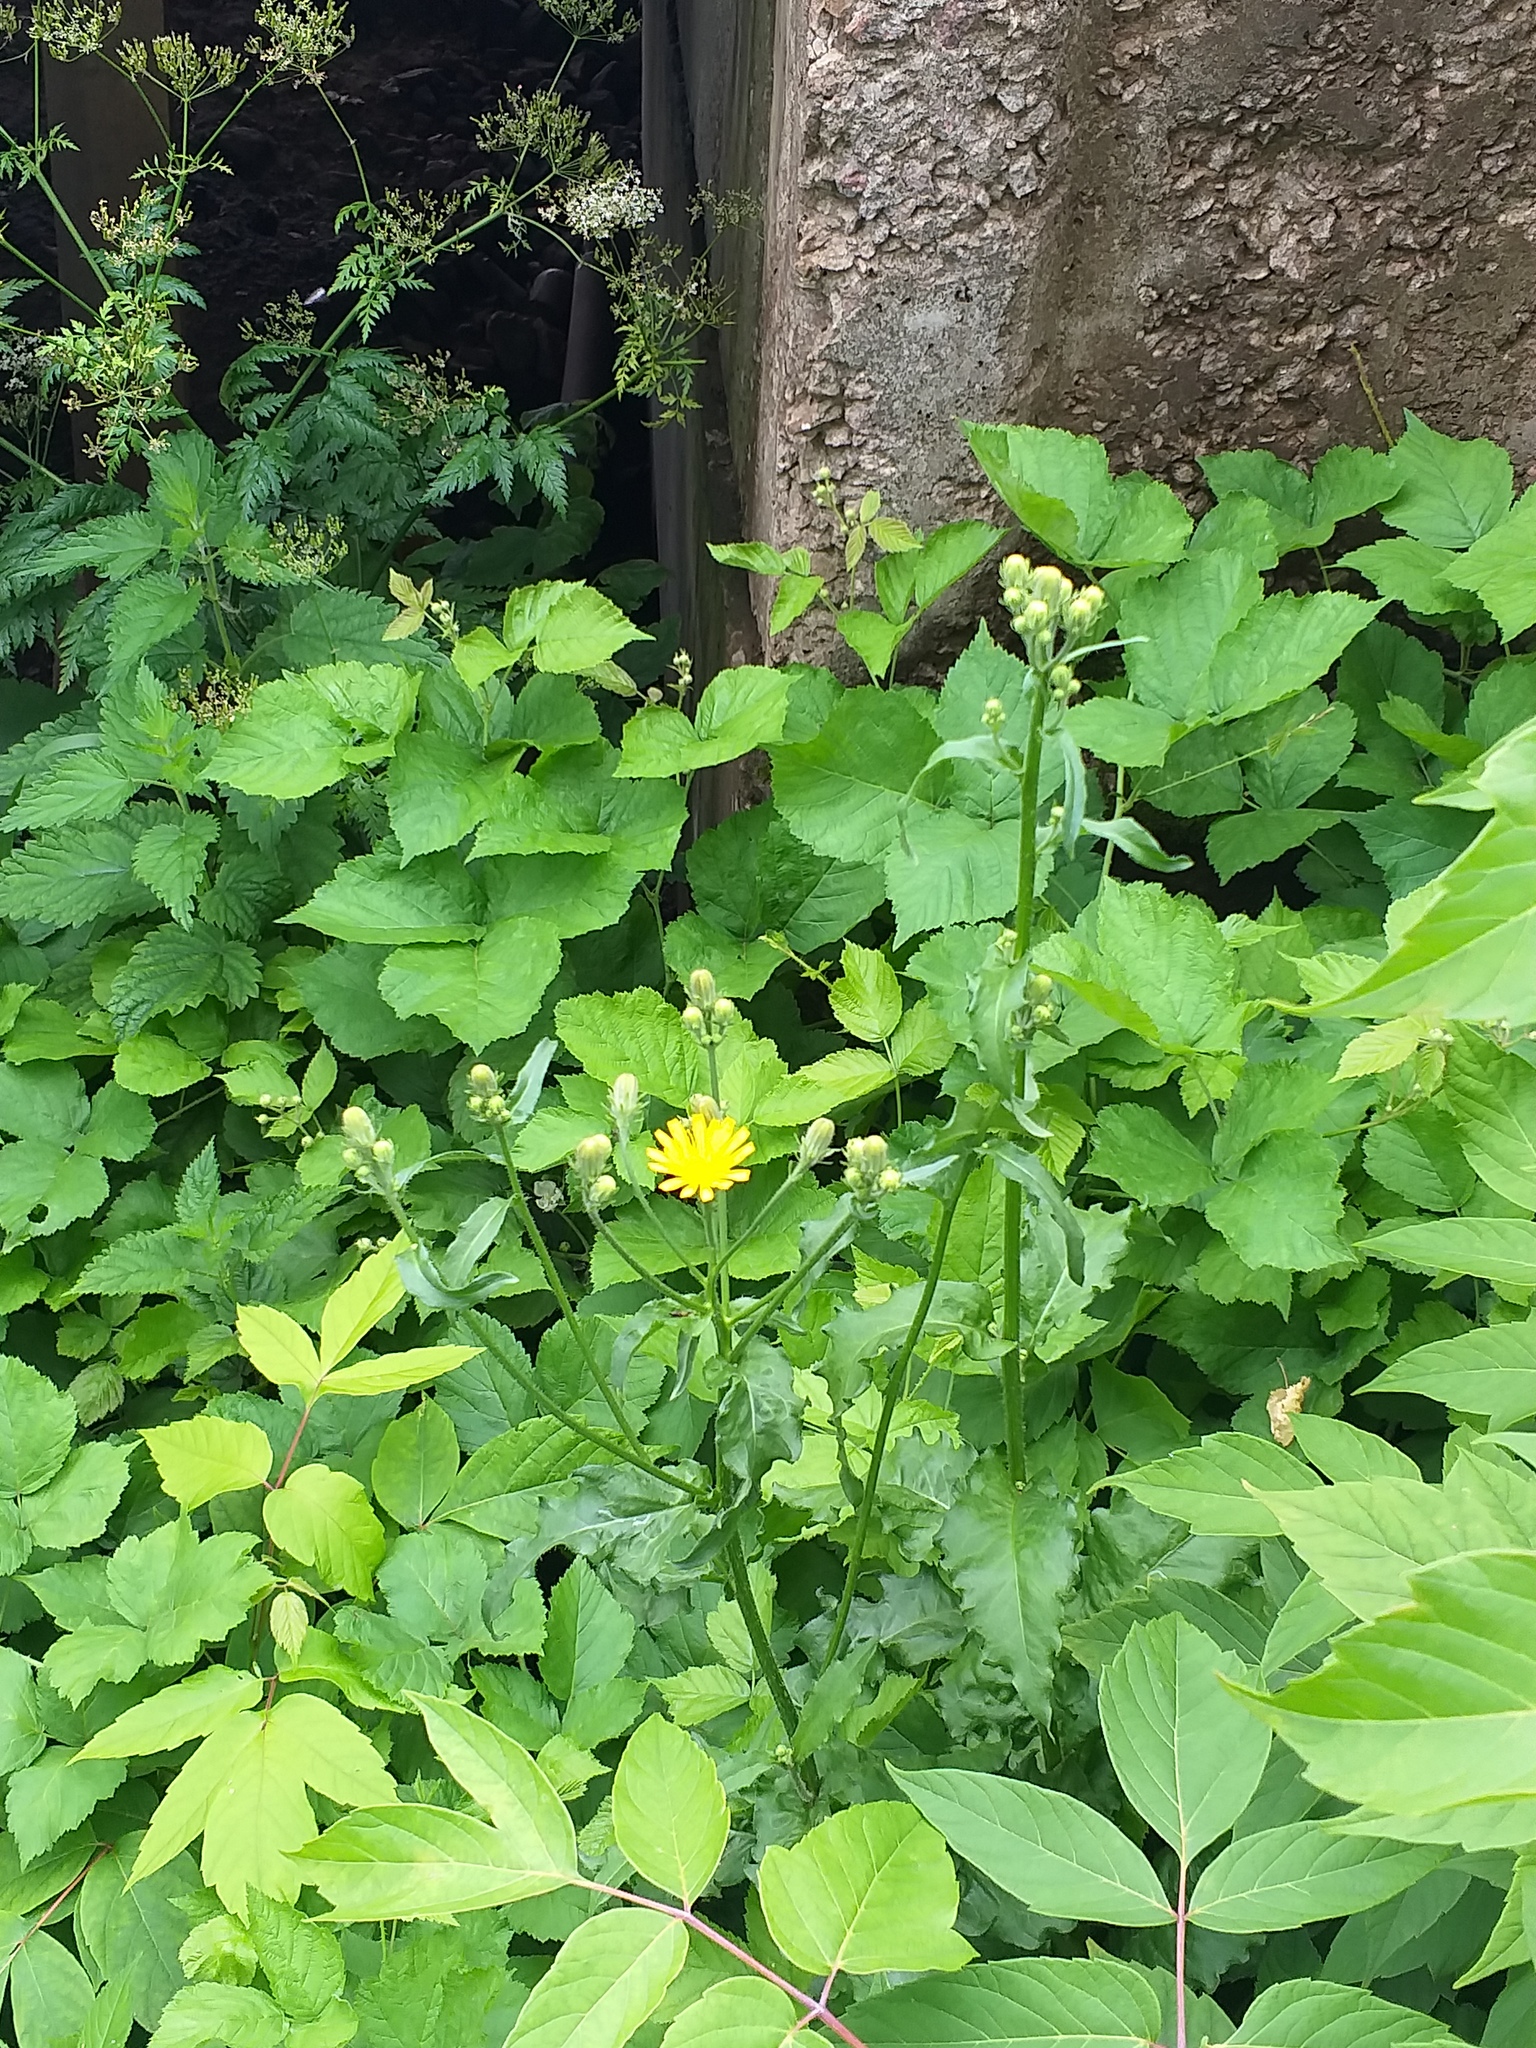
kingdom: Plantae
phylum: Tracheophyta
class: Magnoliopsida
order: Asterales
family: Asteraceae
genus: Picris
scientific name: Picris hieracioides
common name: Hawkweed oxtongue
